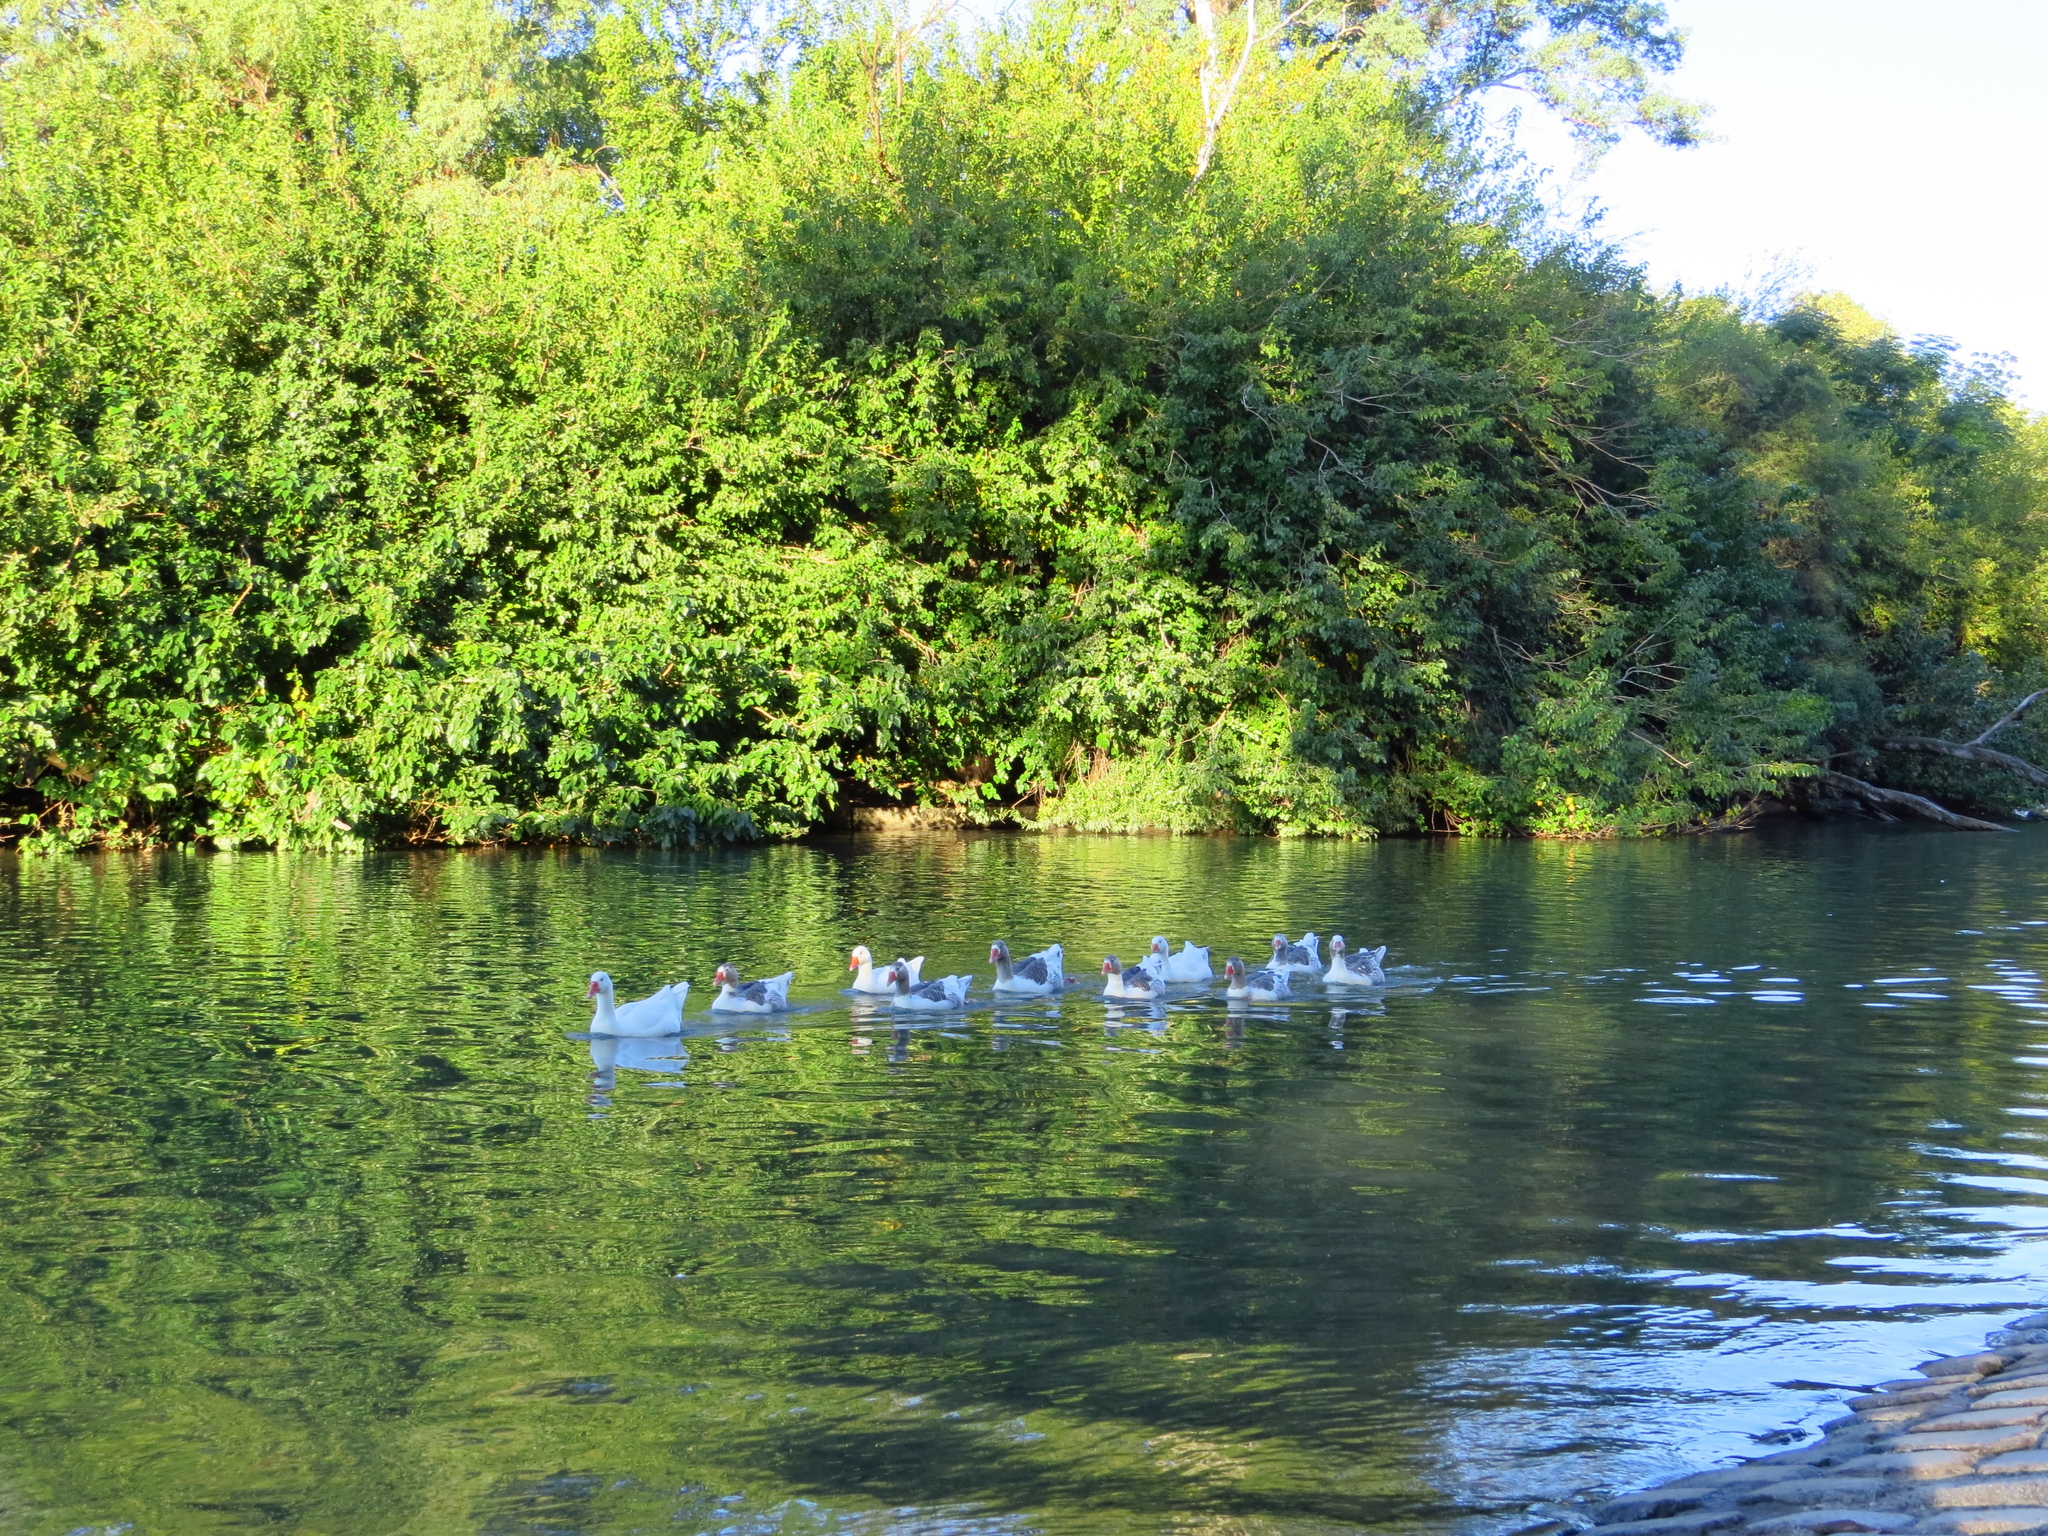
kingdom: Animalia
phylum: Chordata
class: Aves
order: Anseriformes
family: Anatidae
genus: Anser
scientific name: Anser anser
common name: Greylag goose
